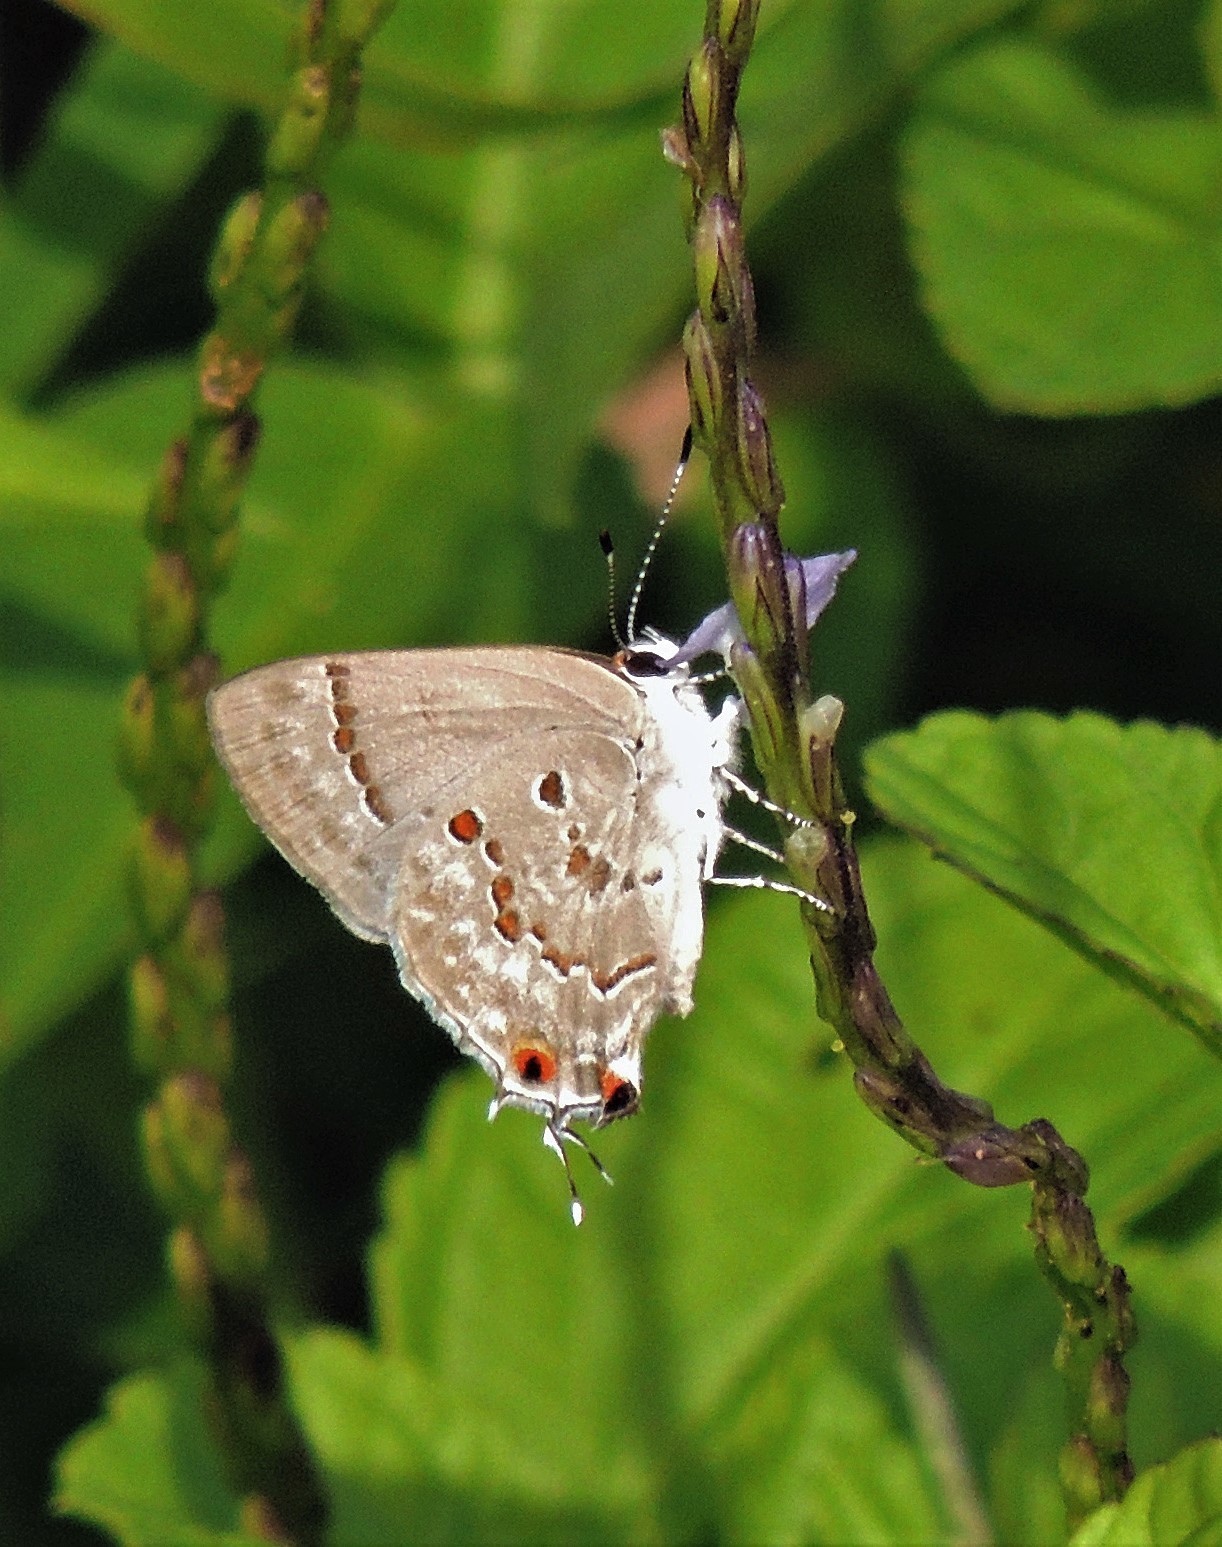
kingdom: Animalia
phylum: Arthropoda
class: Insecta
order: Lepidoptera
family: Lycaenidae
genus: Thecla
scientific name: Thecla megarus
